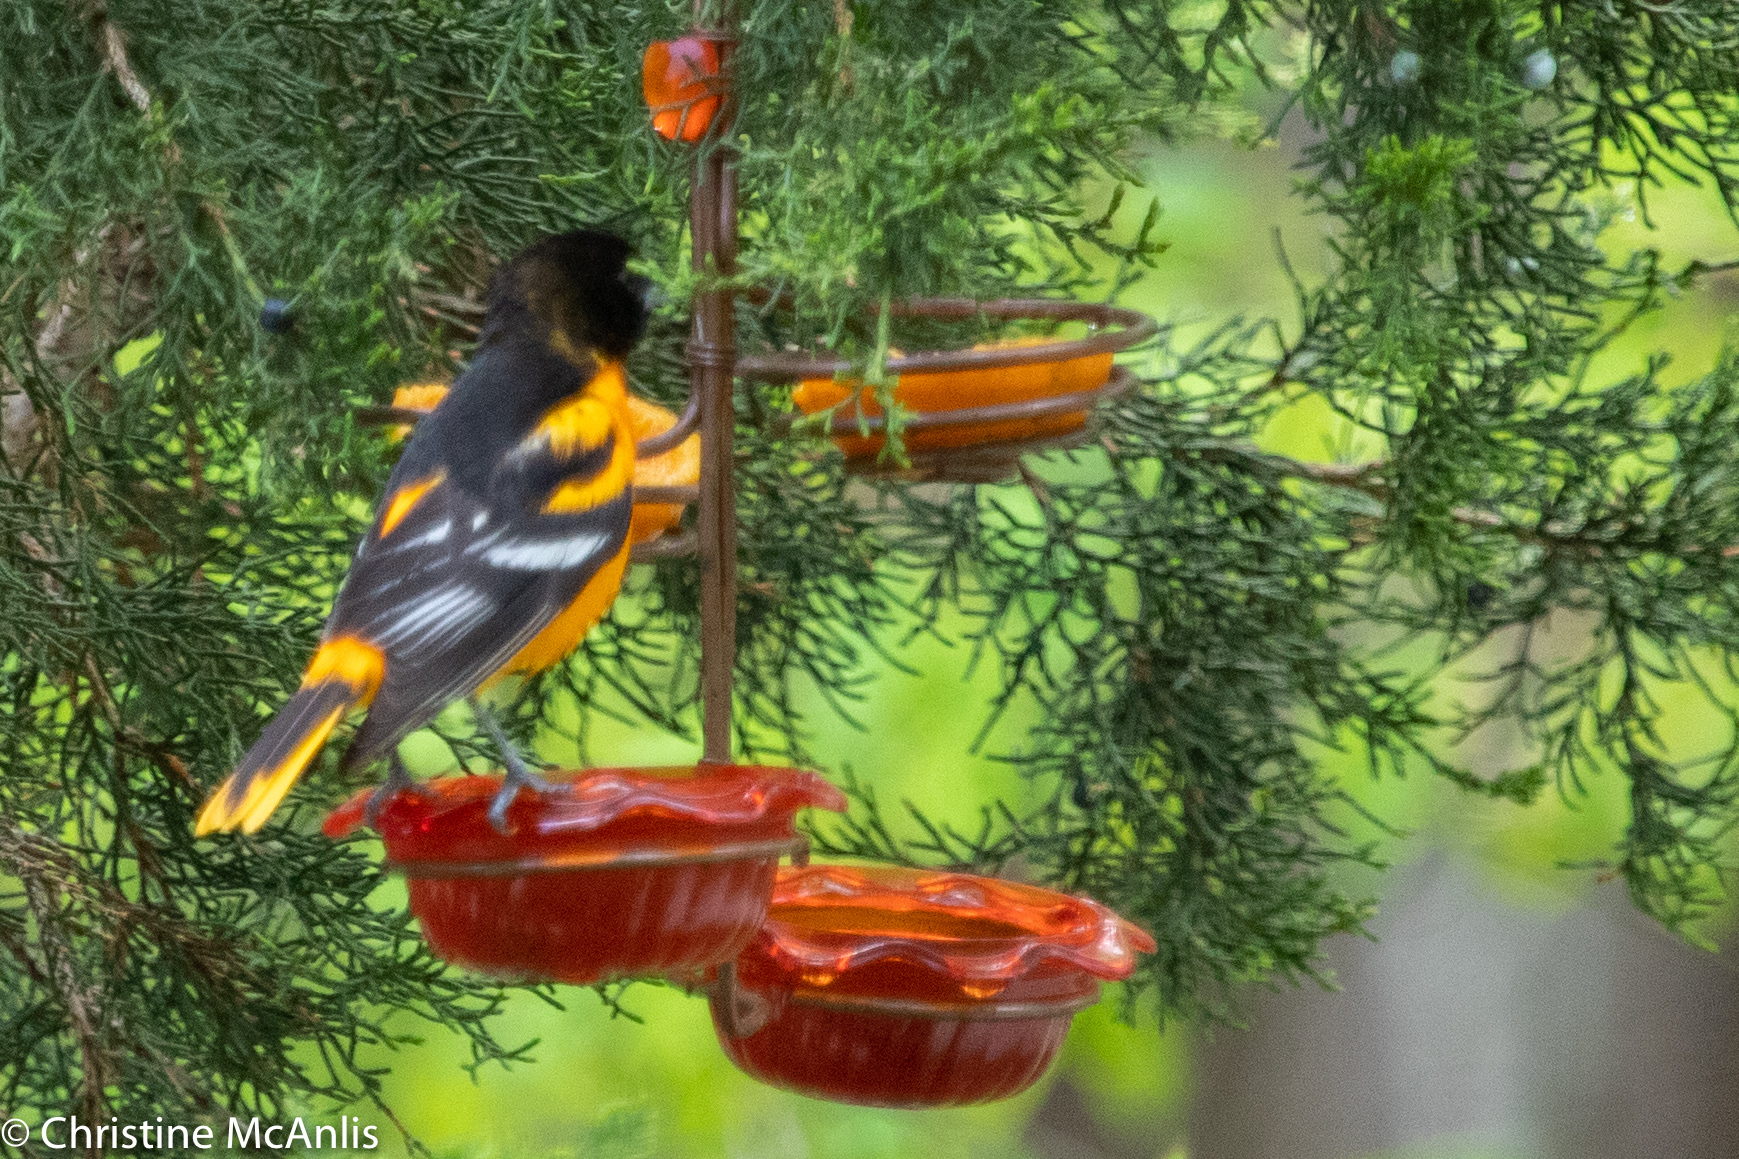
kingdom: Animalia
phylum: Chordata
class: Aves
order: Passeriformes
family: Icteridae
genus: Icterus
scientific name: Icterus galbula
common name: Baltimore oriole
